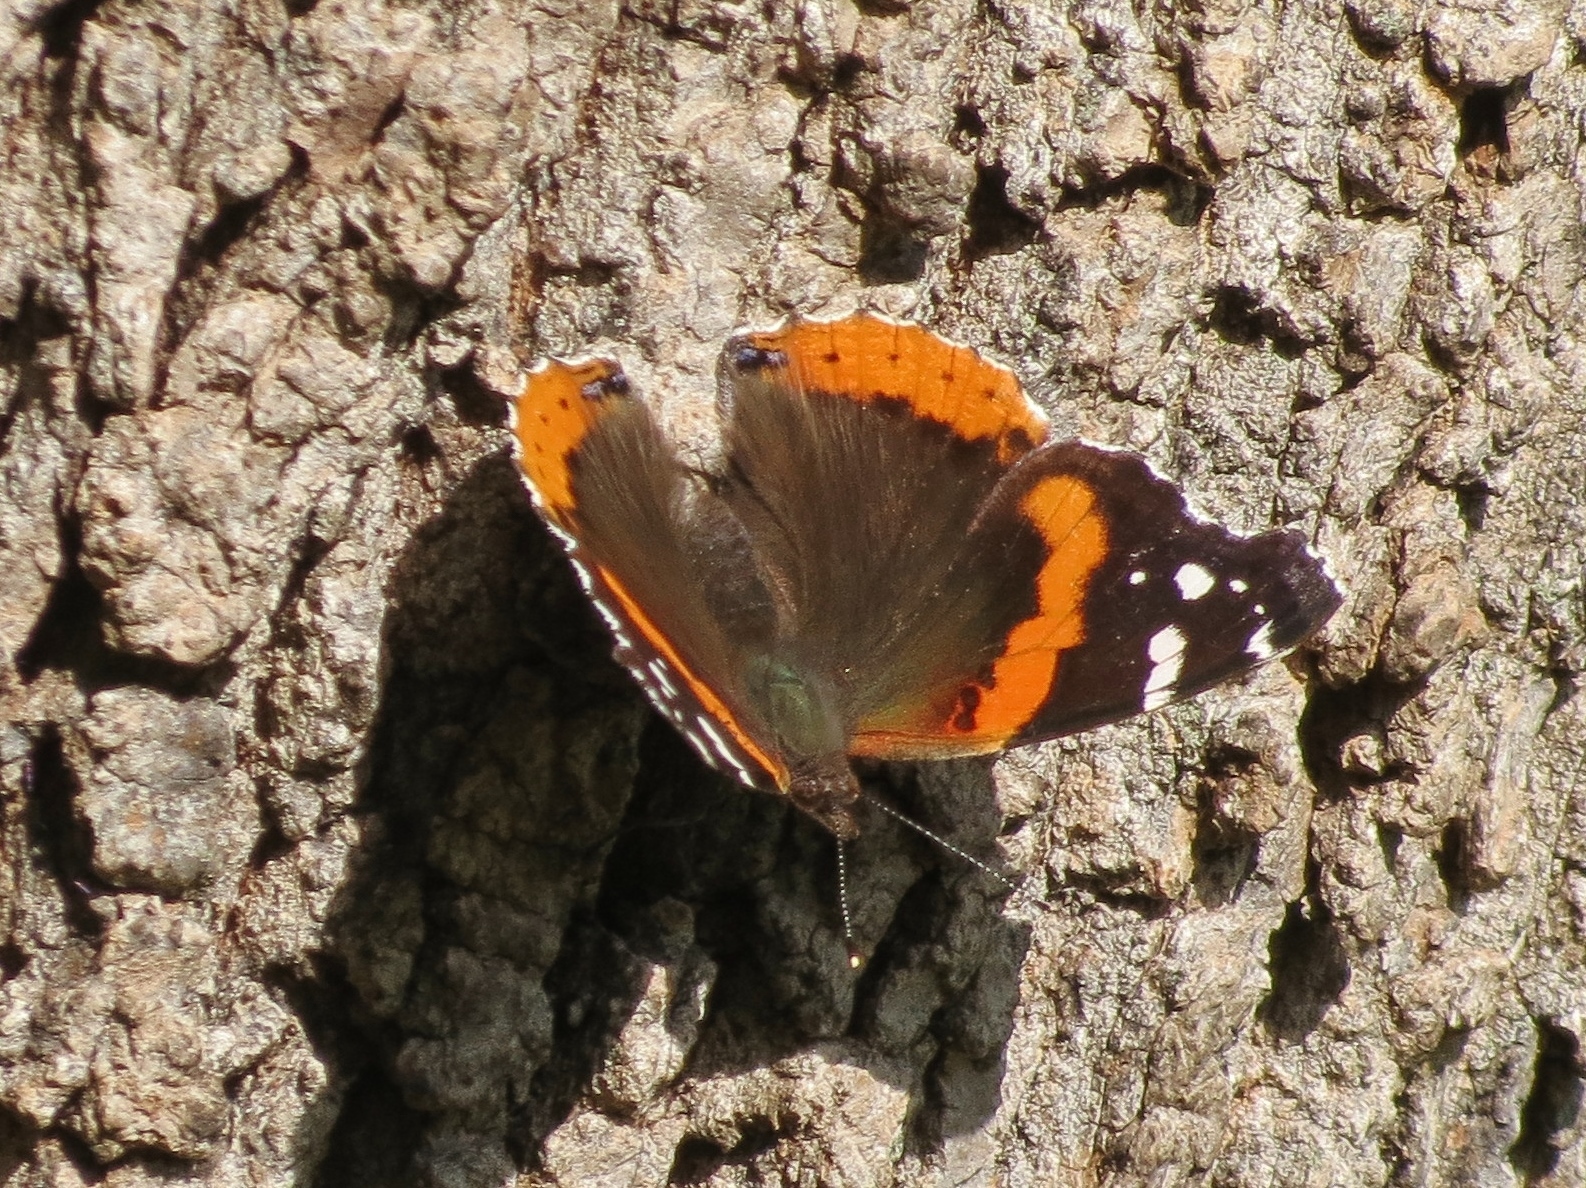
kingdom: Animalia
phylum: Arthropoda
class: Insecta
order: Lepidoptera
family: Nymphalidae
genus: Vanessa
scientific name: Vanessa atalanta
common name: Red admiral
